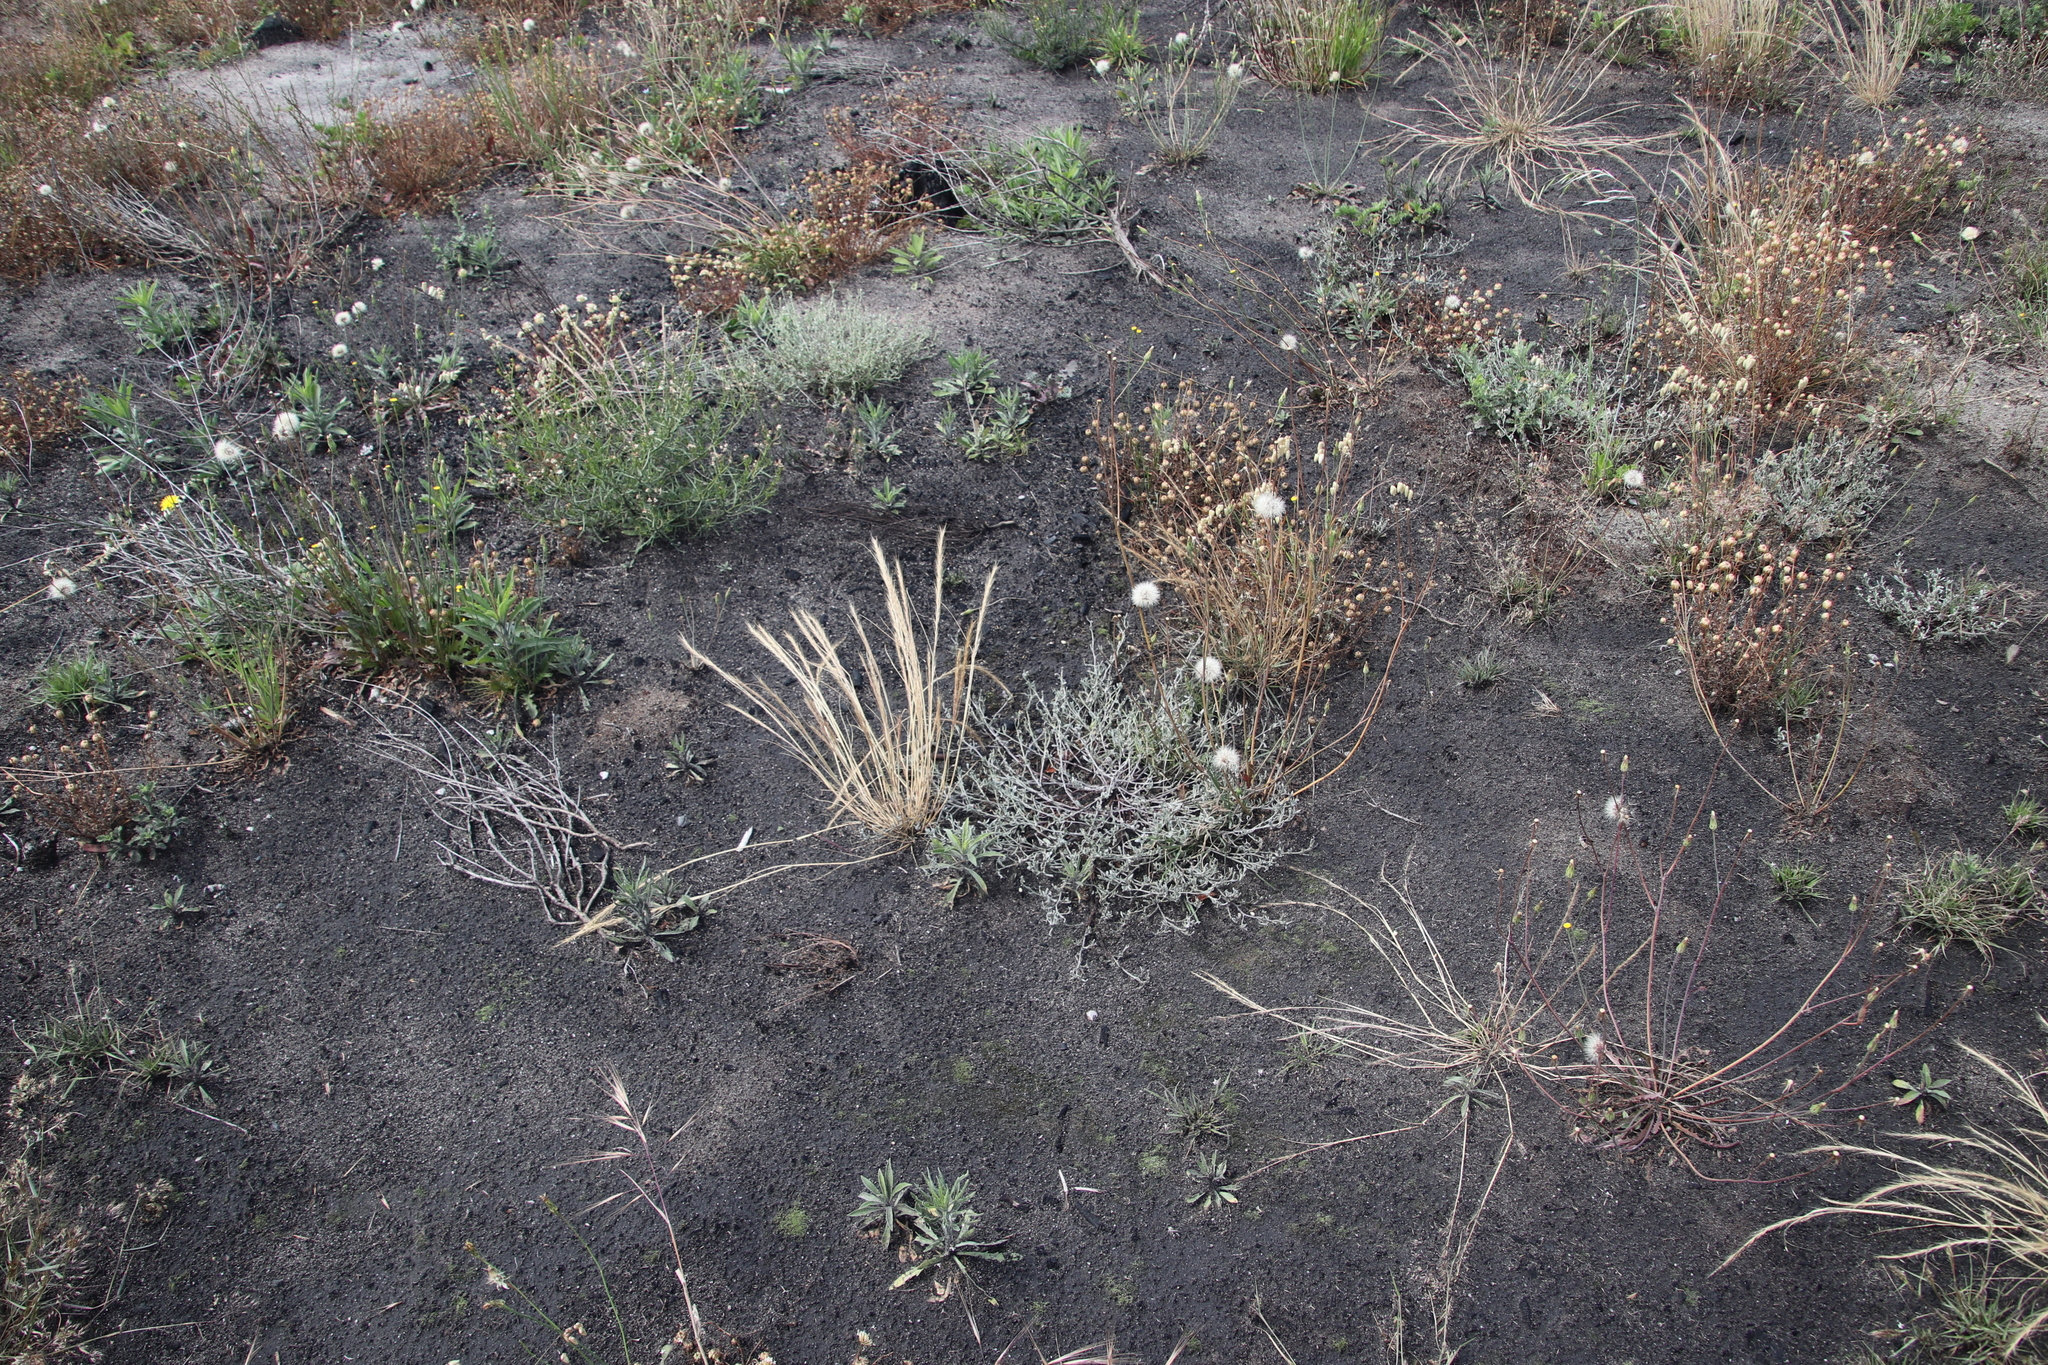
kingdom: Plantae
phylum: Tracheophyta
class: Magnoliopsida
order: Asterales
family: Asteraceae
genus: Helichrysum
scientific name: Helichrysum indicum
